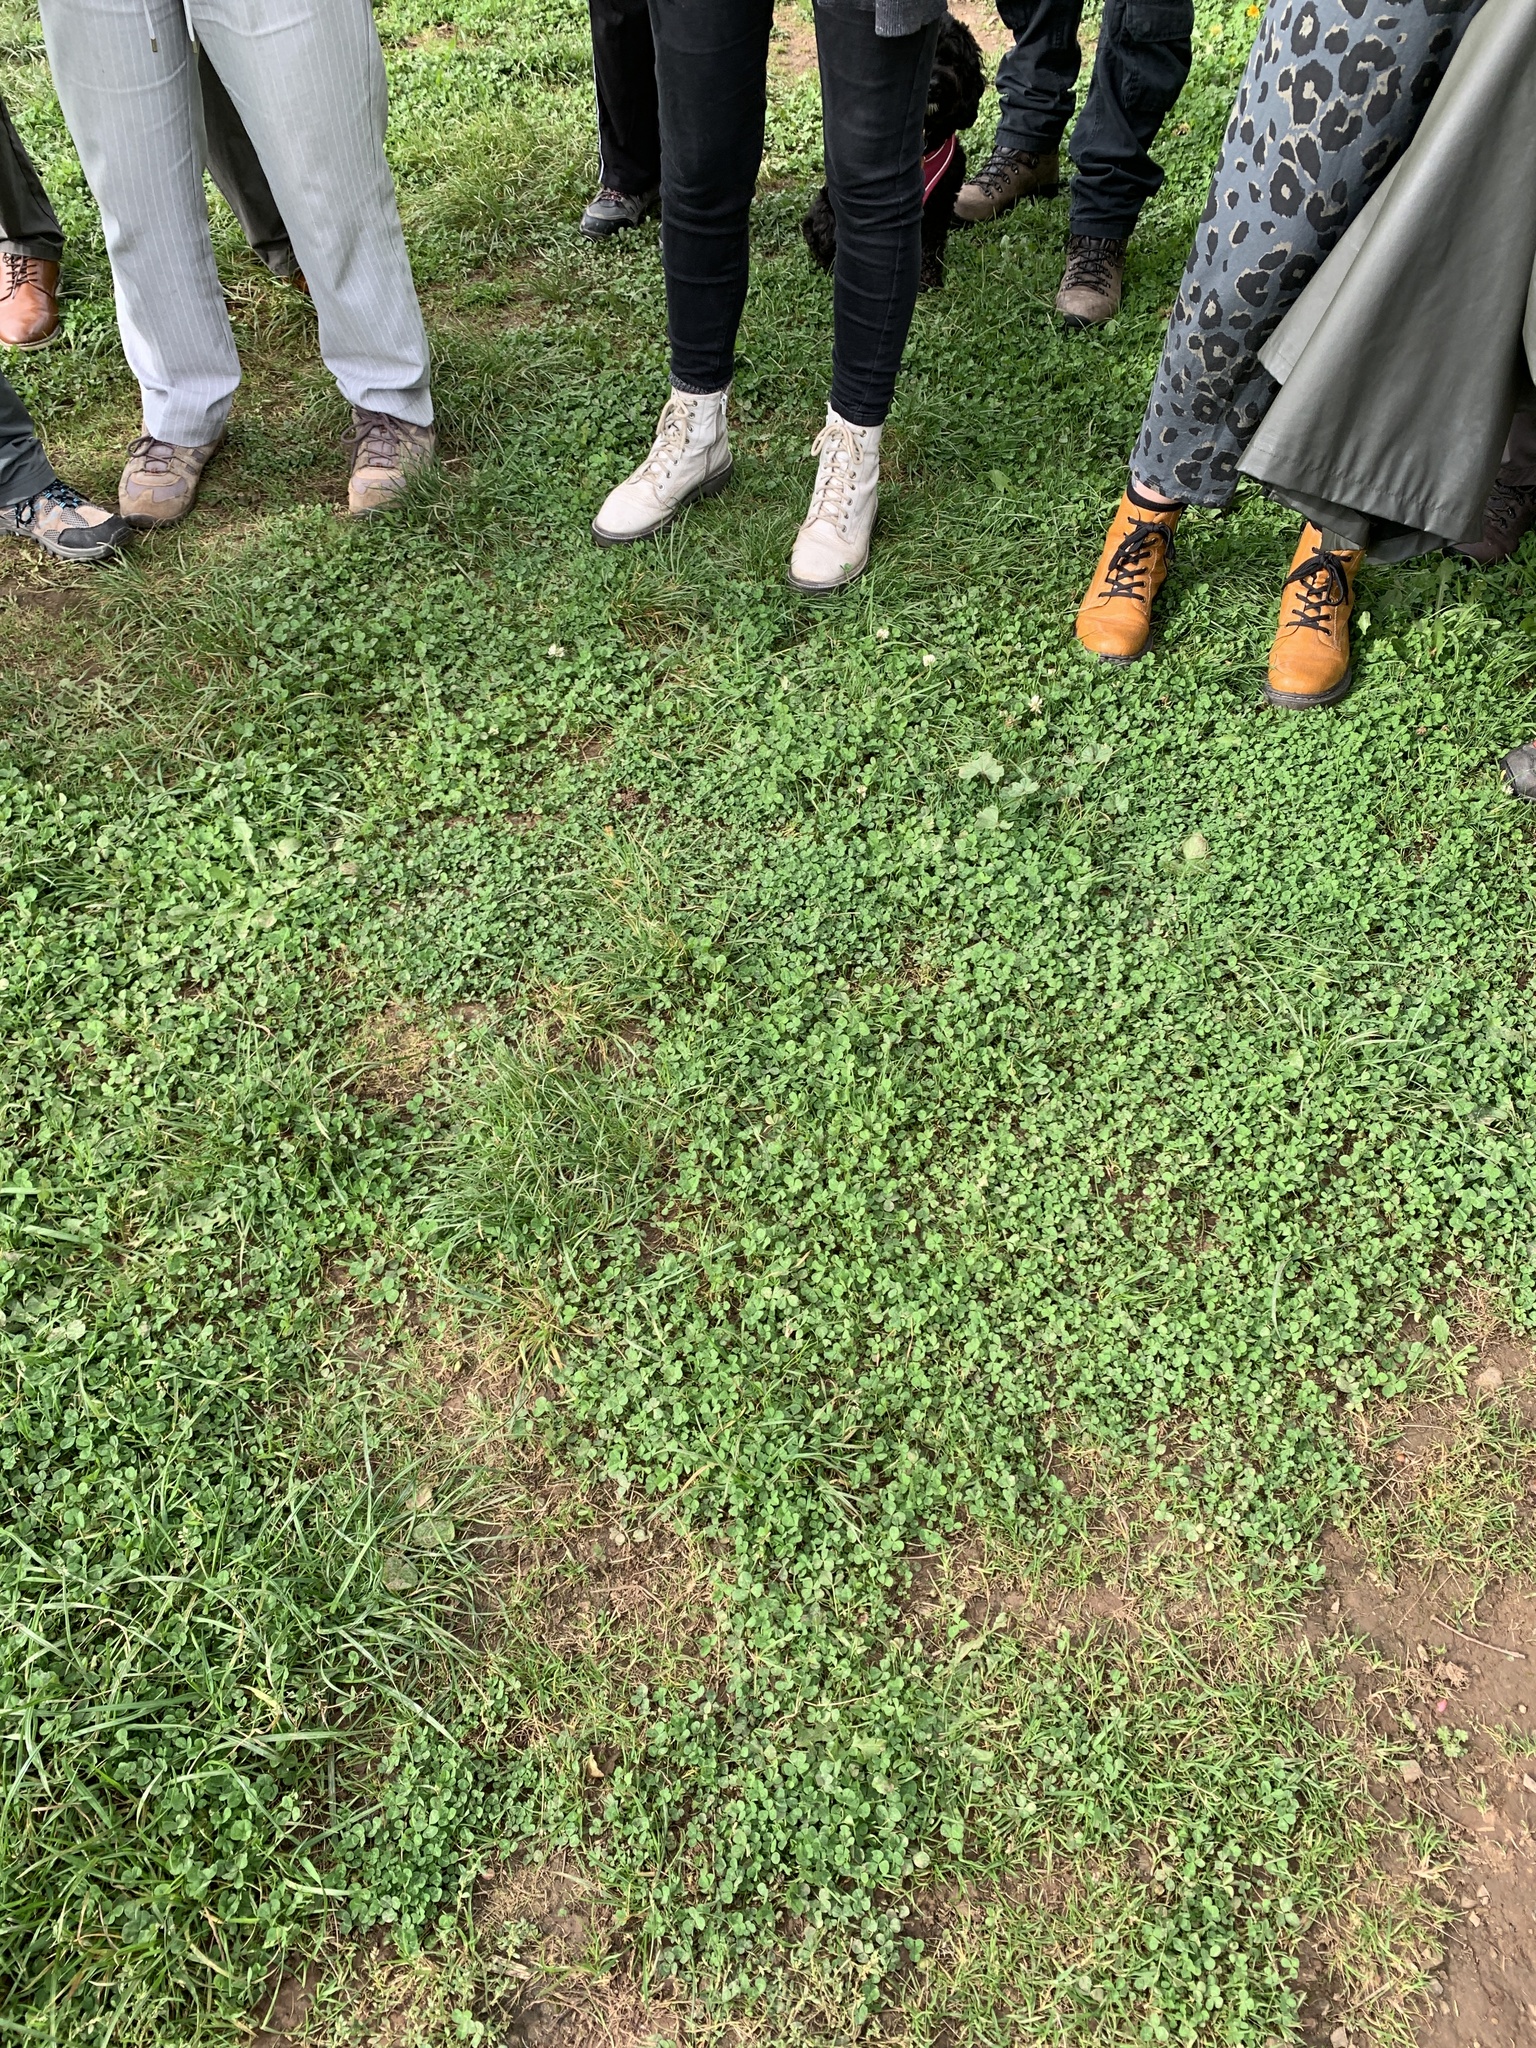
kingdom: Plantae
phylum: Tracheophyta
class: Magnoliopsida
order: Fabales
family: Fabaceae
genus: Trifolium
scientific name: Trifolium repens
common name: White clover
